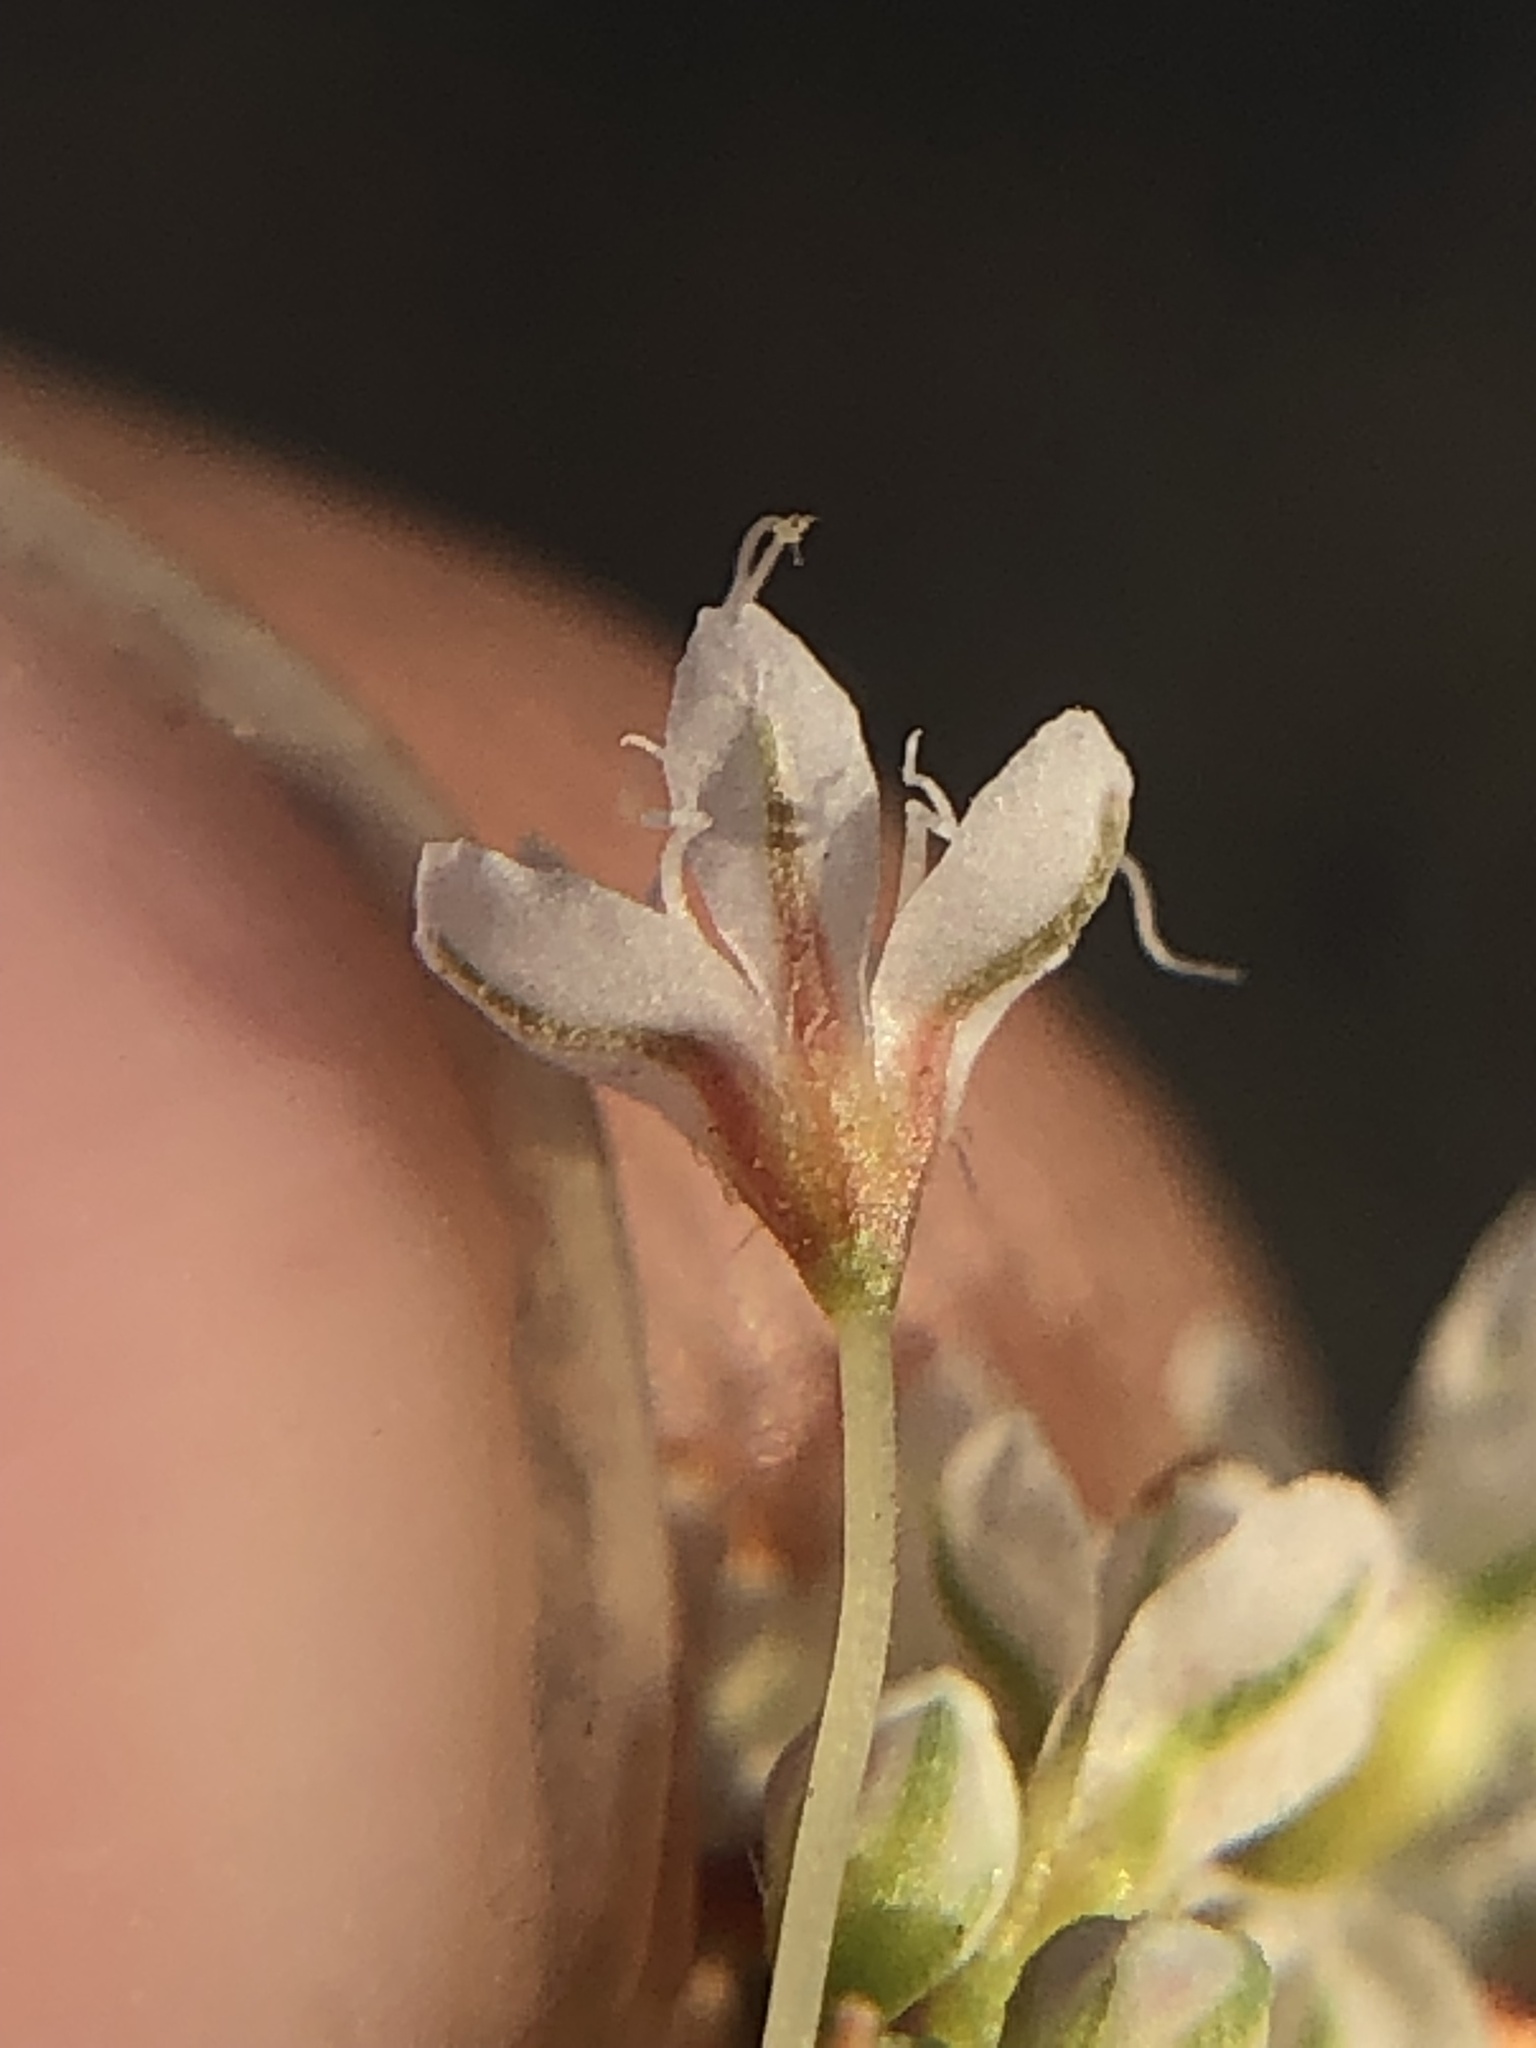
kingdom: Plantae
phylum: Tracheophyta
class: Magnoliopsida
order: Caryophyllales
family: Polygonaceae
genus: Eriogonum
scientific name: Eriogonum fasciculatum
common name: California wild buckwheat
